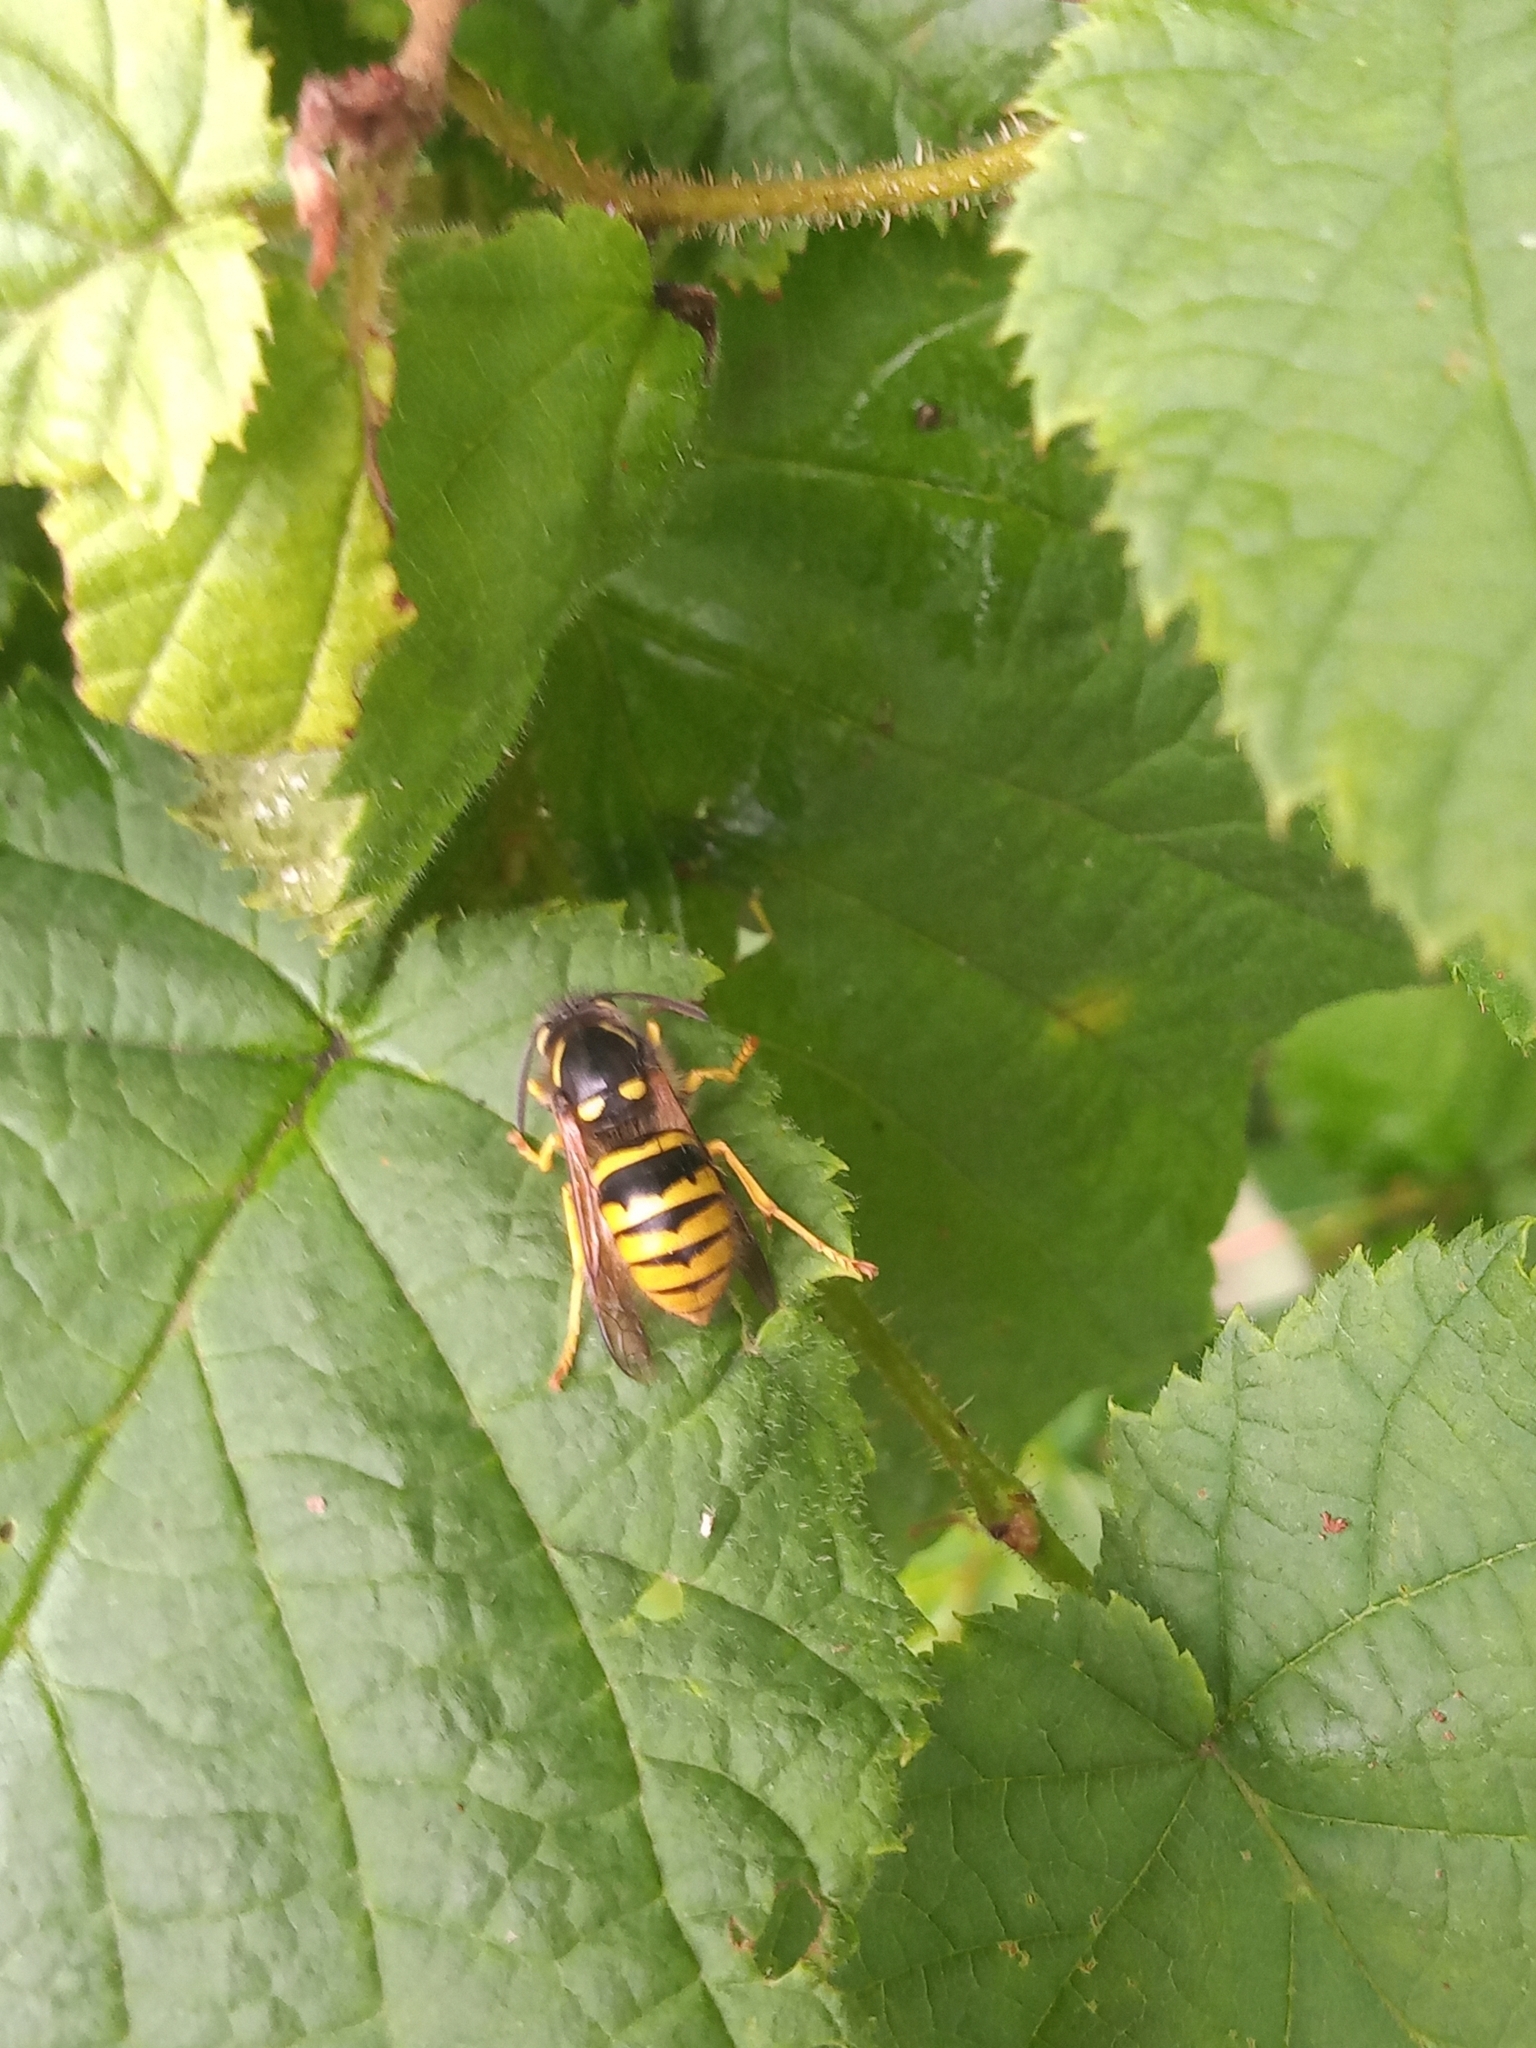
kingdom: Animalia
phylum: Arthropoda
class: Insecta
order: Hymenoptera
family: Vespidae
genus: Dolichovespula
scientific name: Dolichovespula sylvestris
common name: Tree wasp
